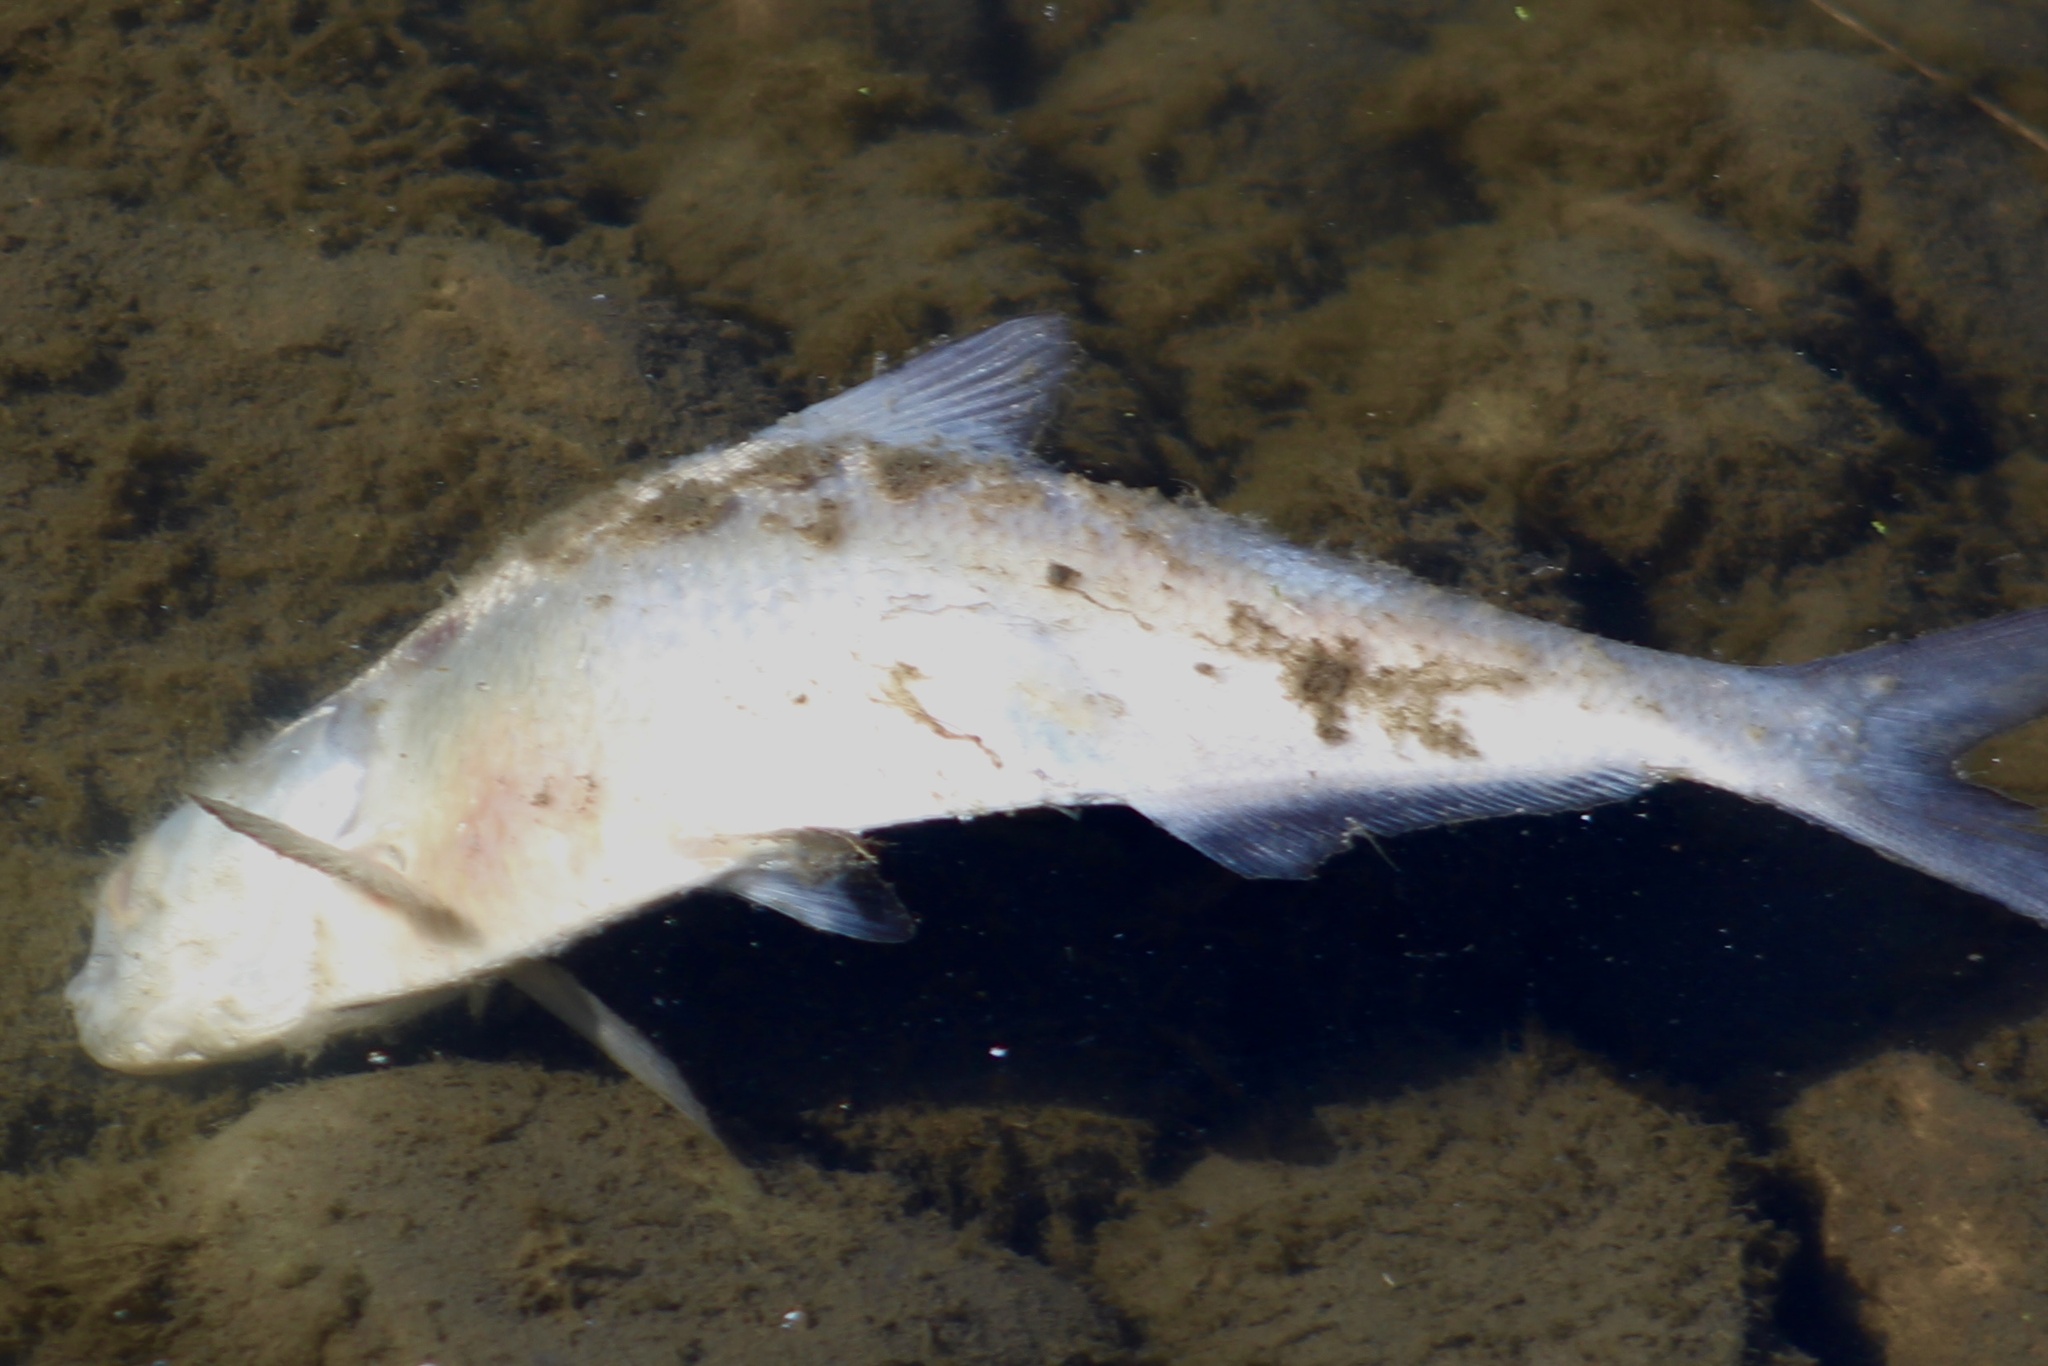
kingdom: Animalia
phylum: Chordata
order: Clupeiformes
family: Clupeidae
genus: Dorosoma
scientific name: Dorosoma cepedianum
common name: Gizzard shad
